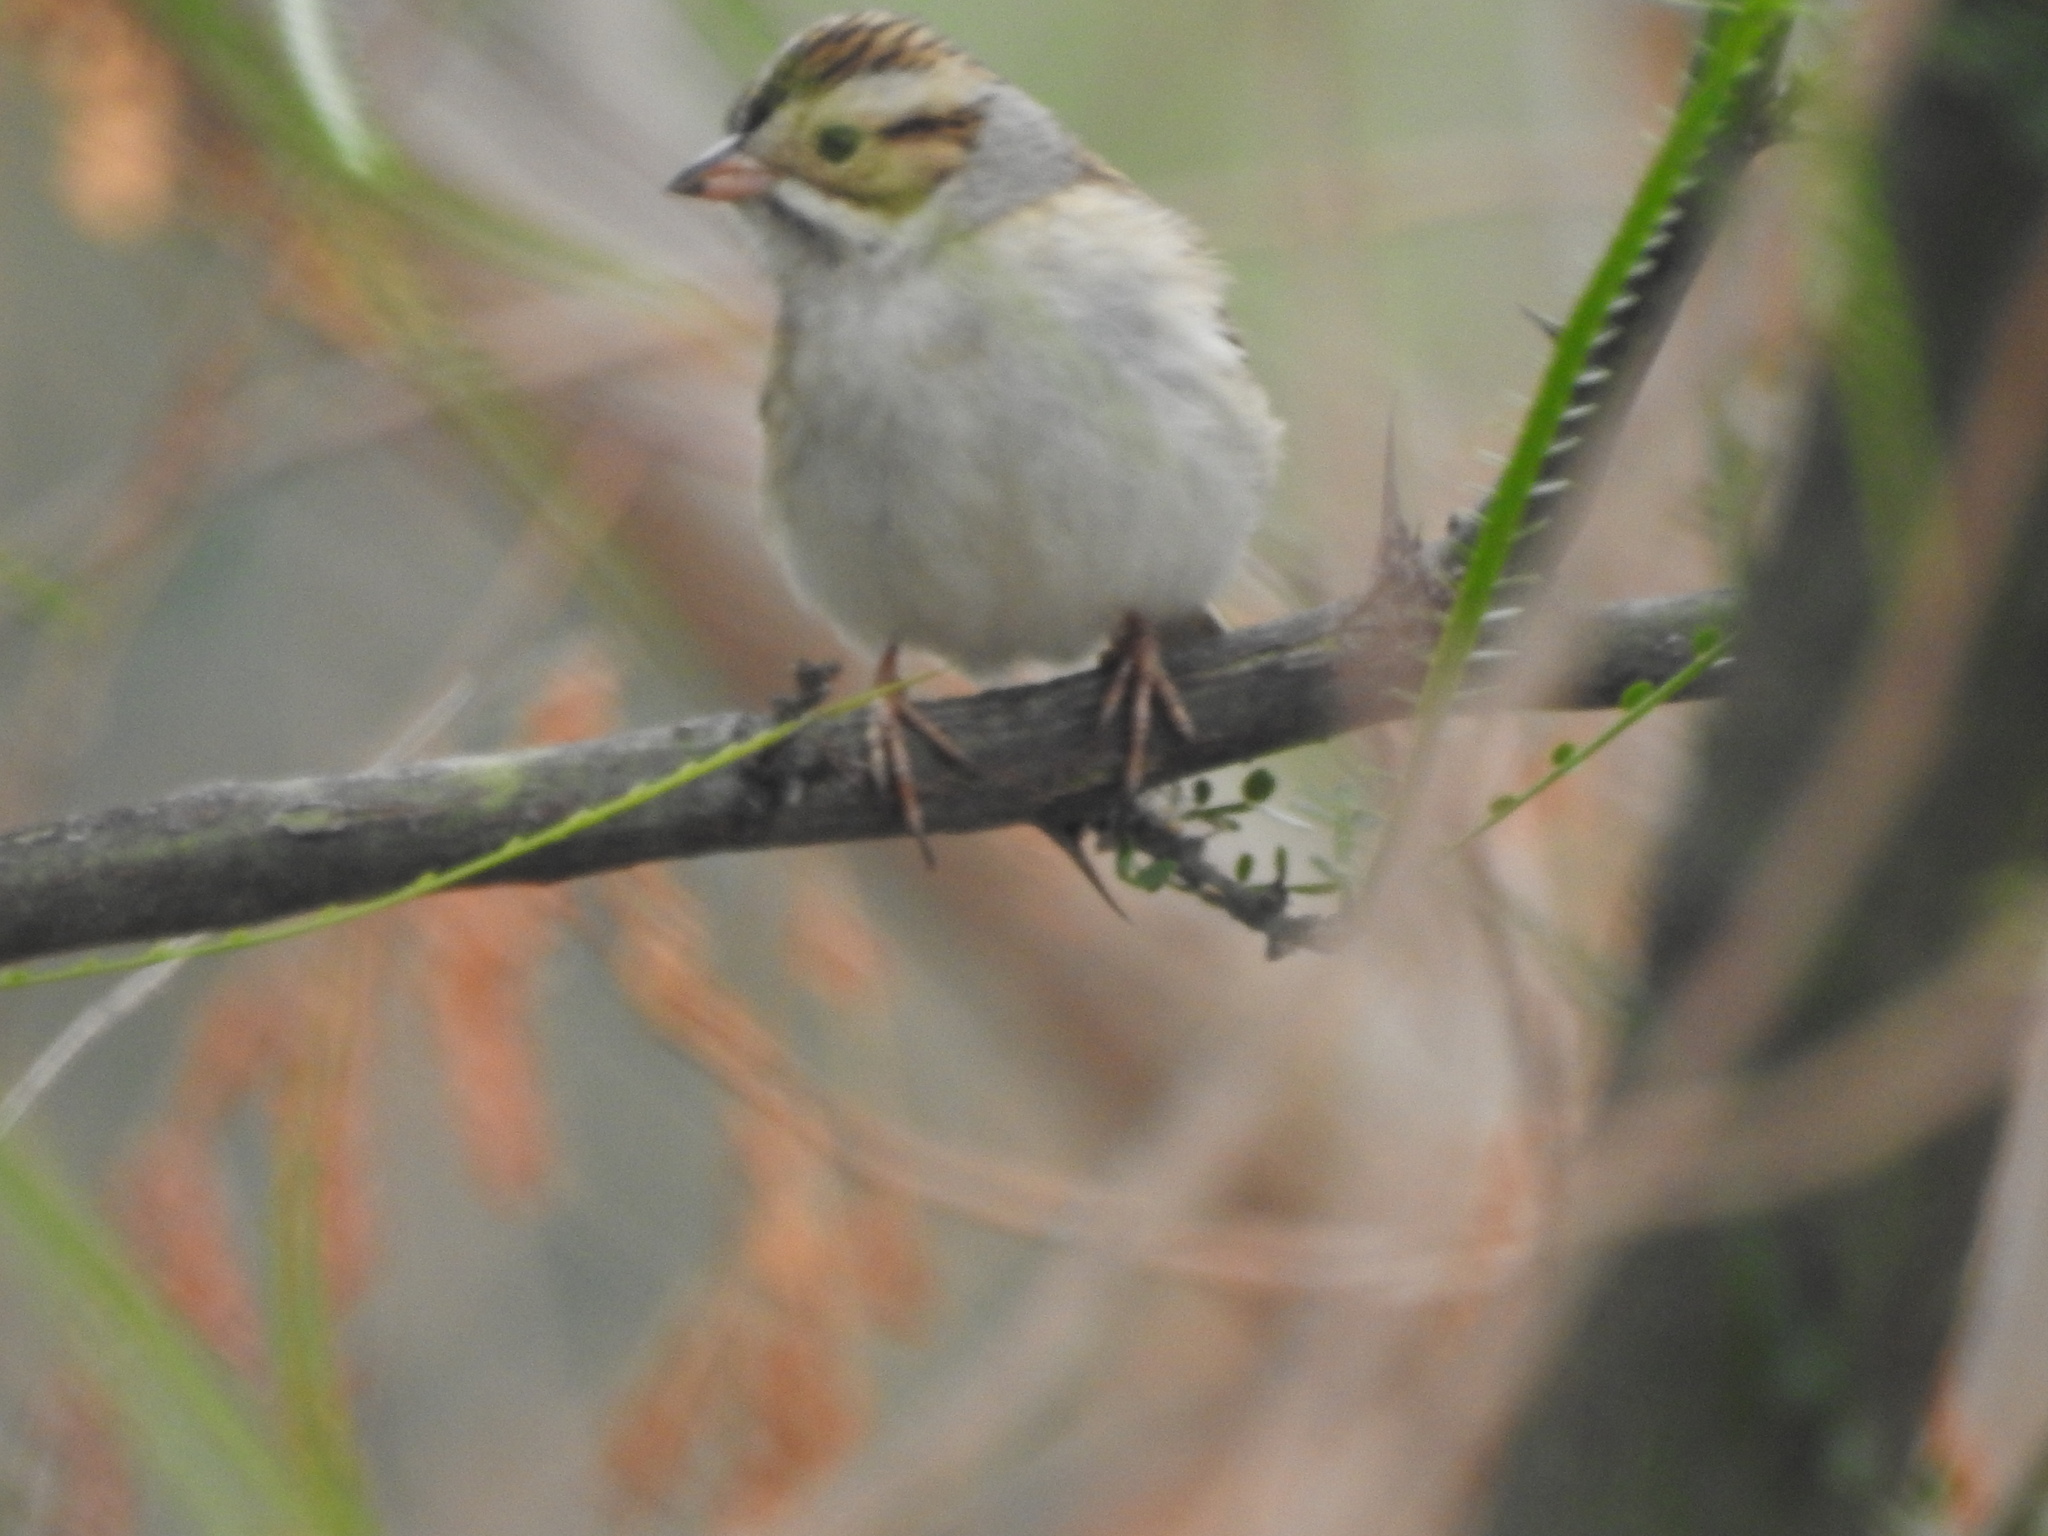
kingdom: Animalia
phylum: Chordata
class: Aves
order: Passeriformes
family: Passerellidae
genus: Spizella
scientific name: Spizella pallida
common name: Clay-colored sparrow
